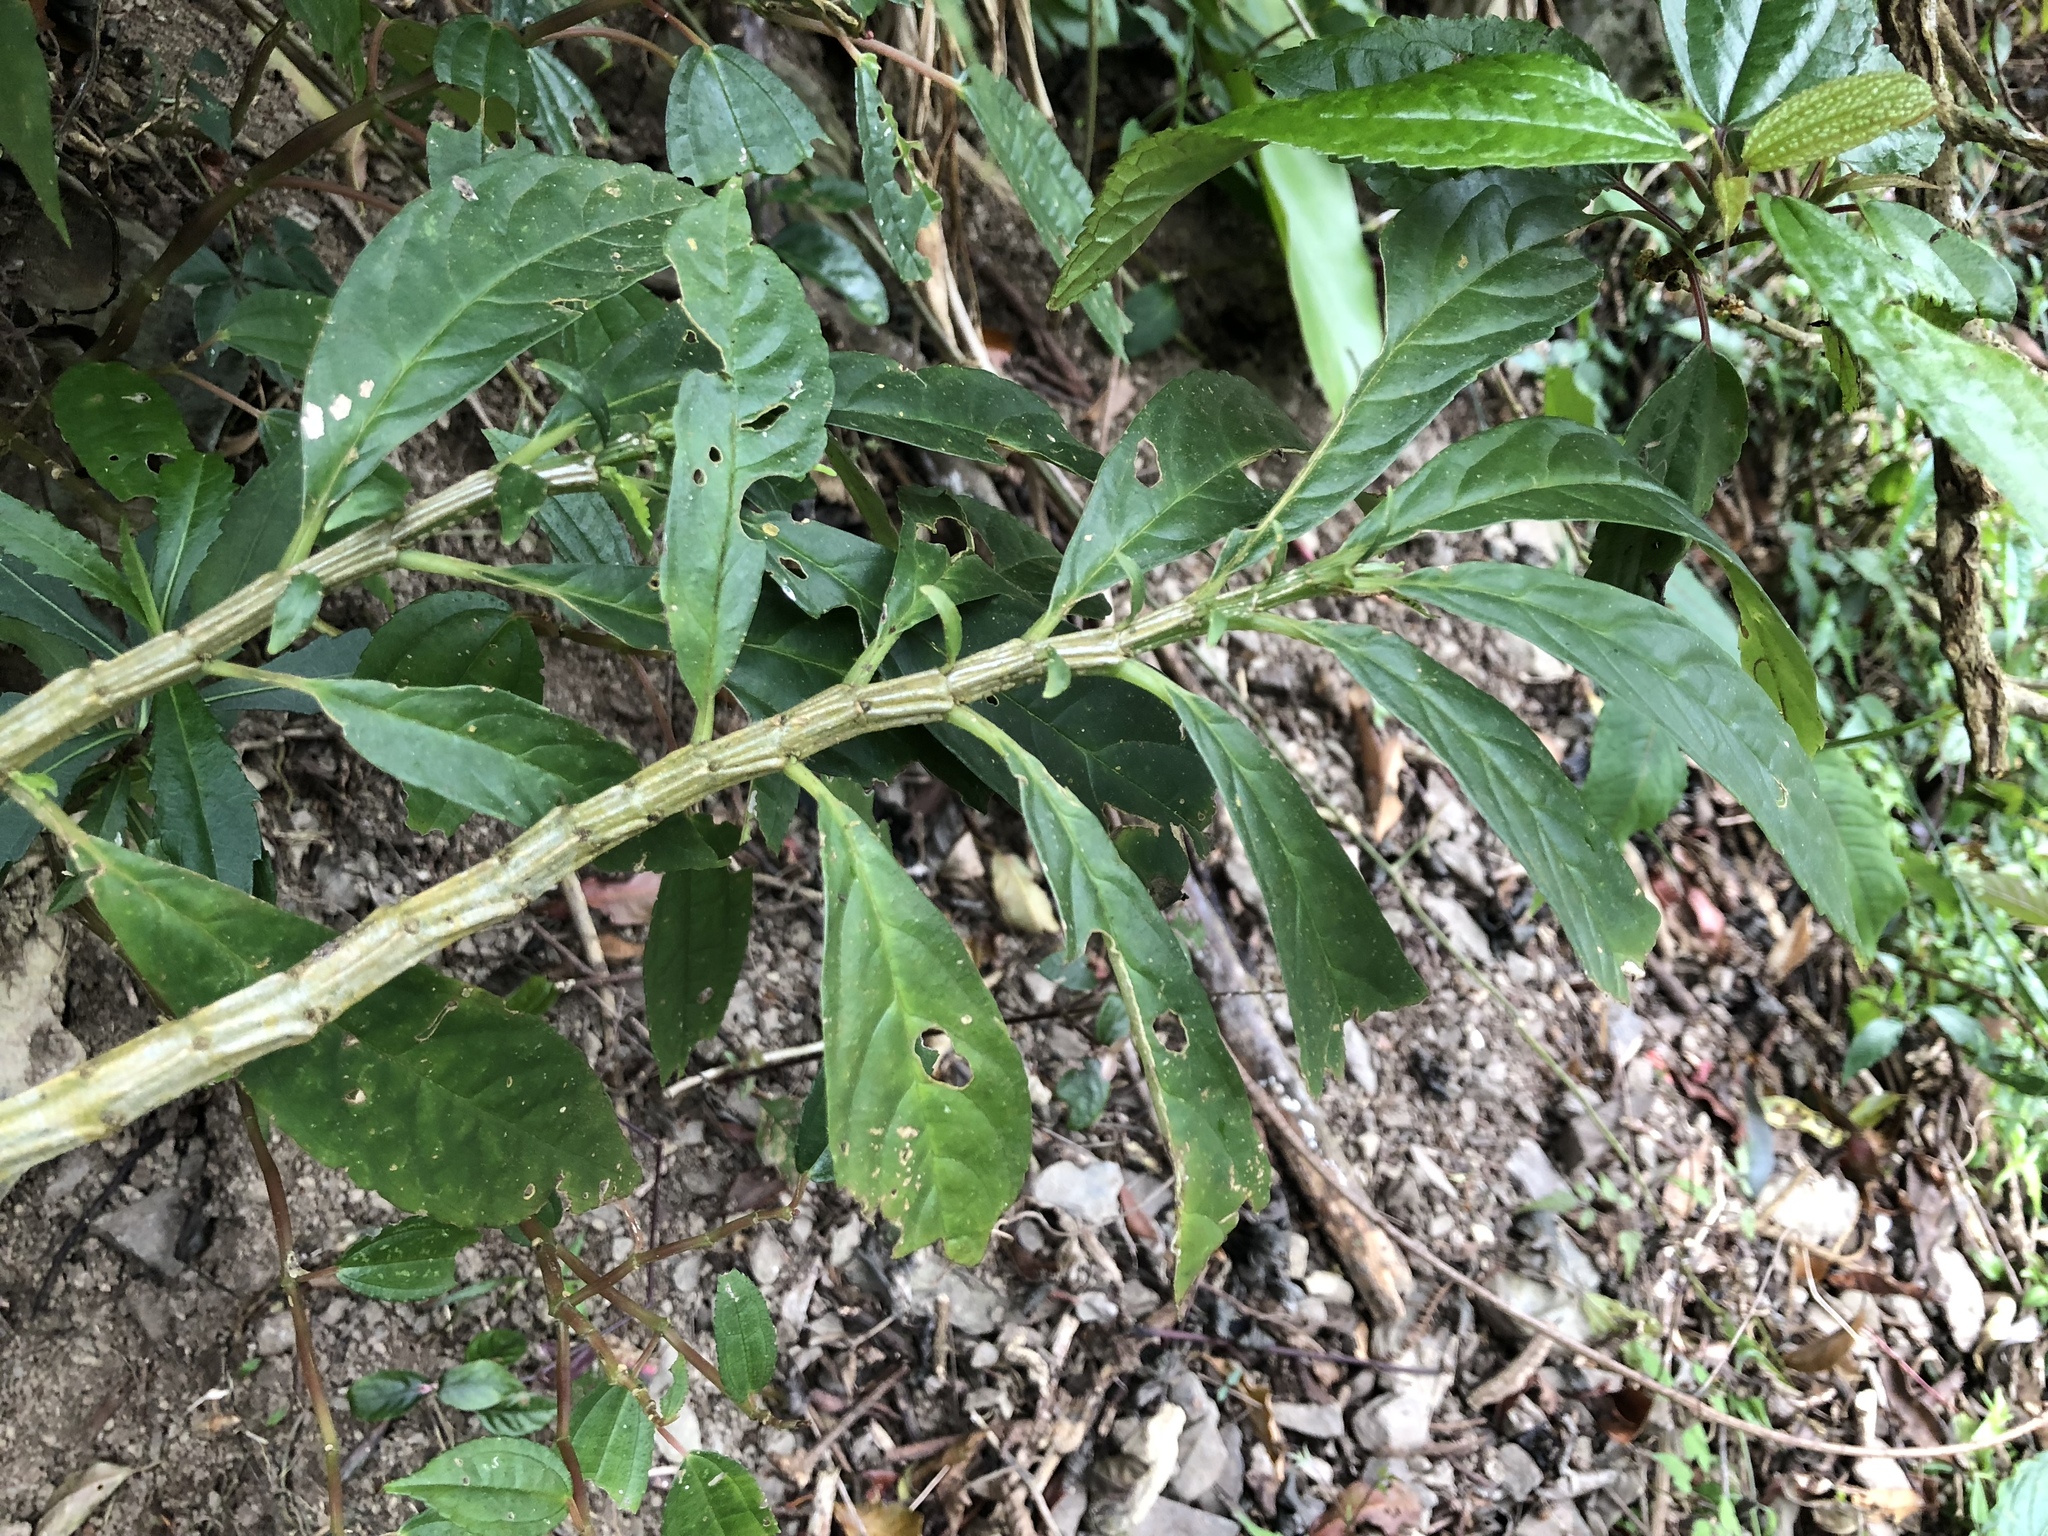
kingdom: Plantae
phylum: Tracheophyta
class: Magnoliopsida
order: Rosales
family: Urticaceae
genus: Procris
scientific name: Procris
